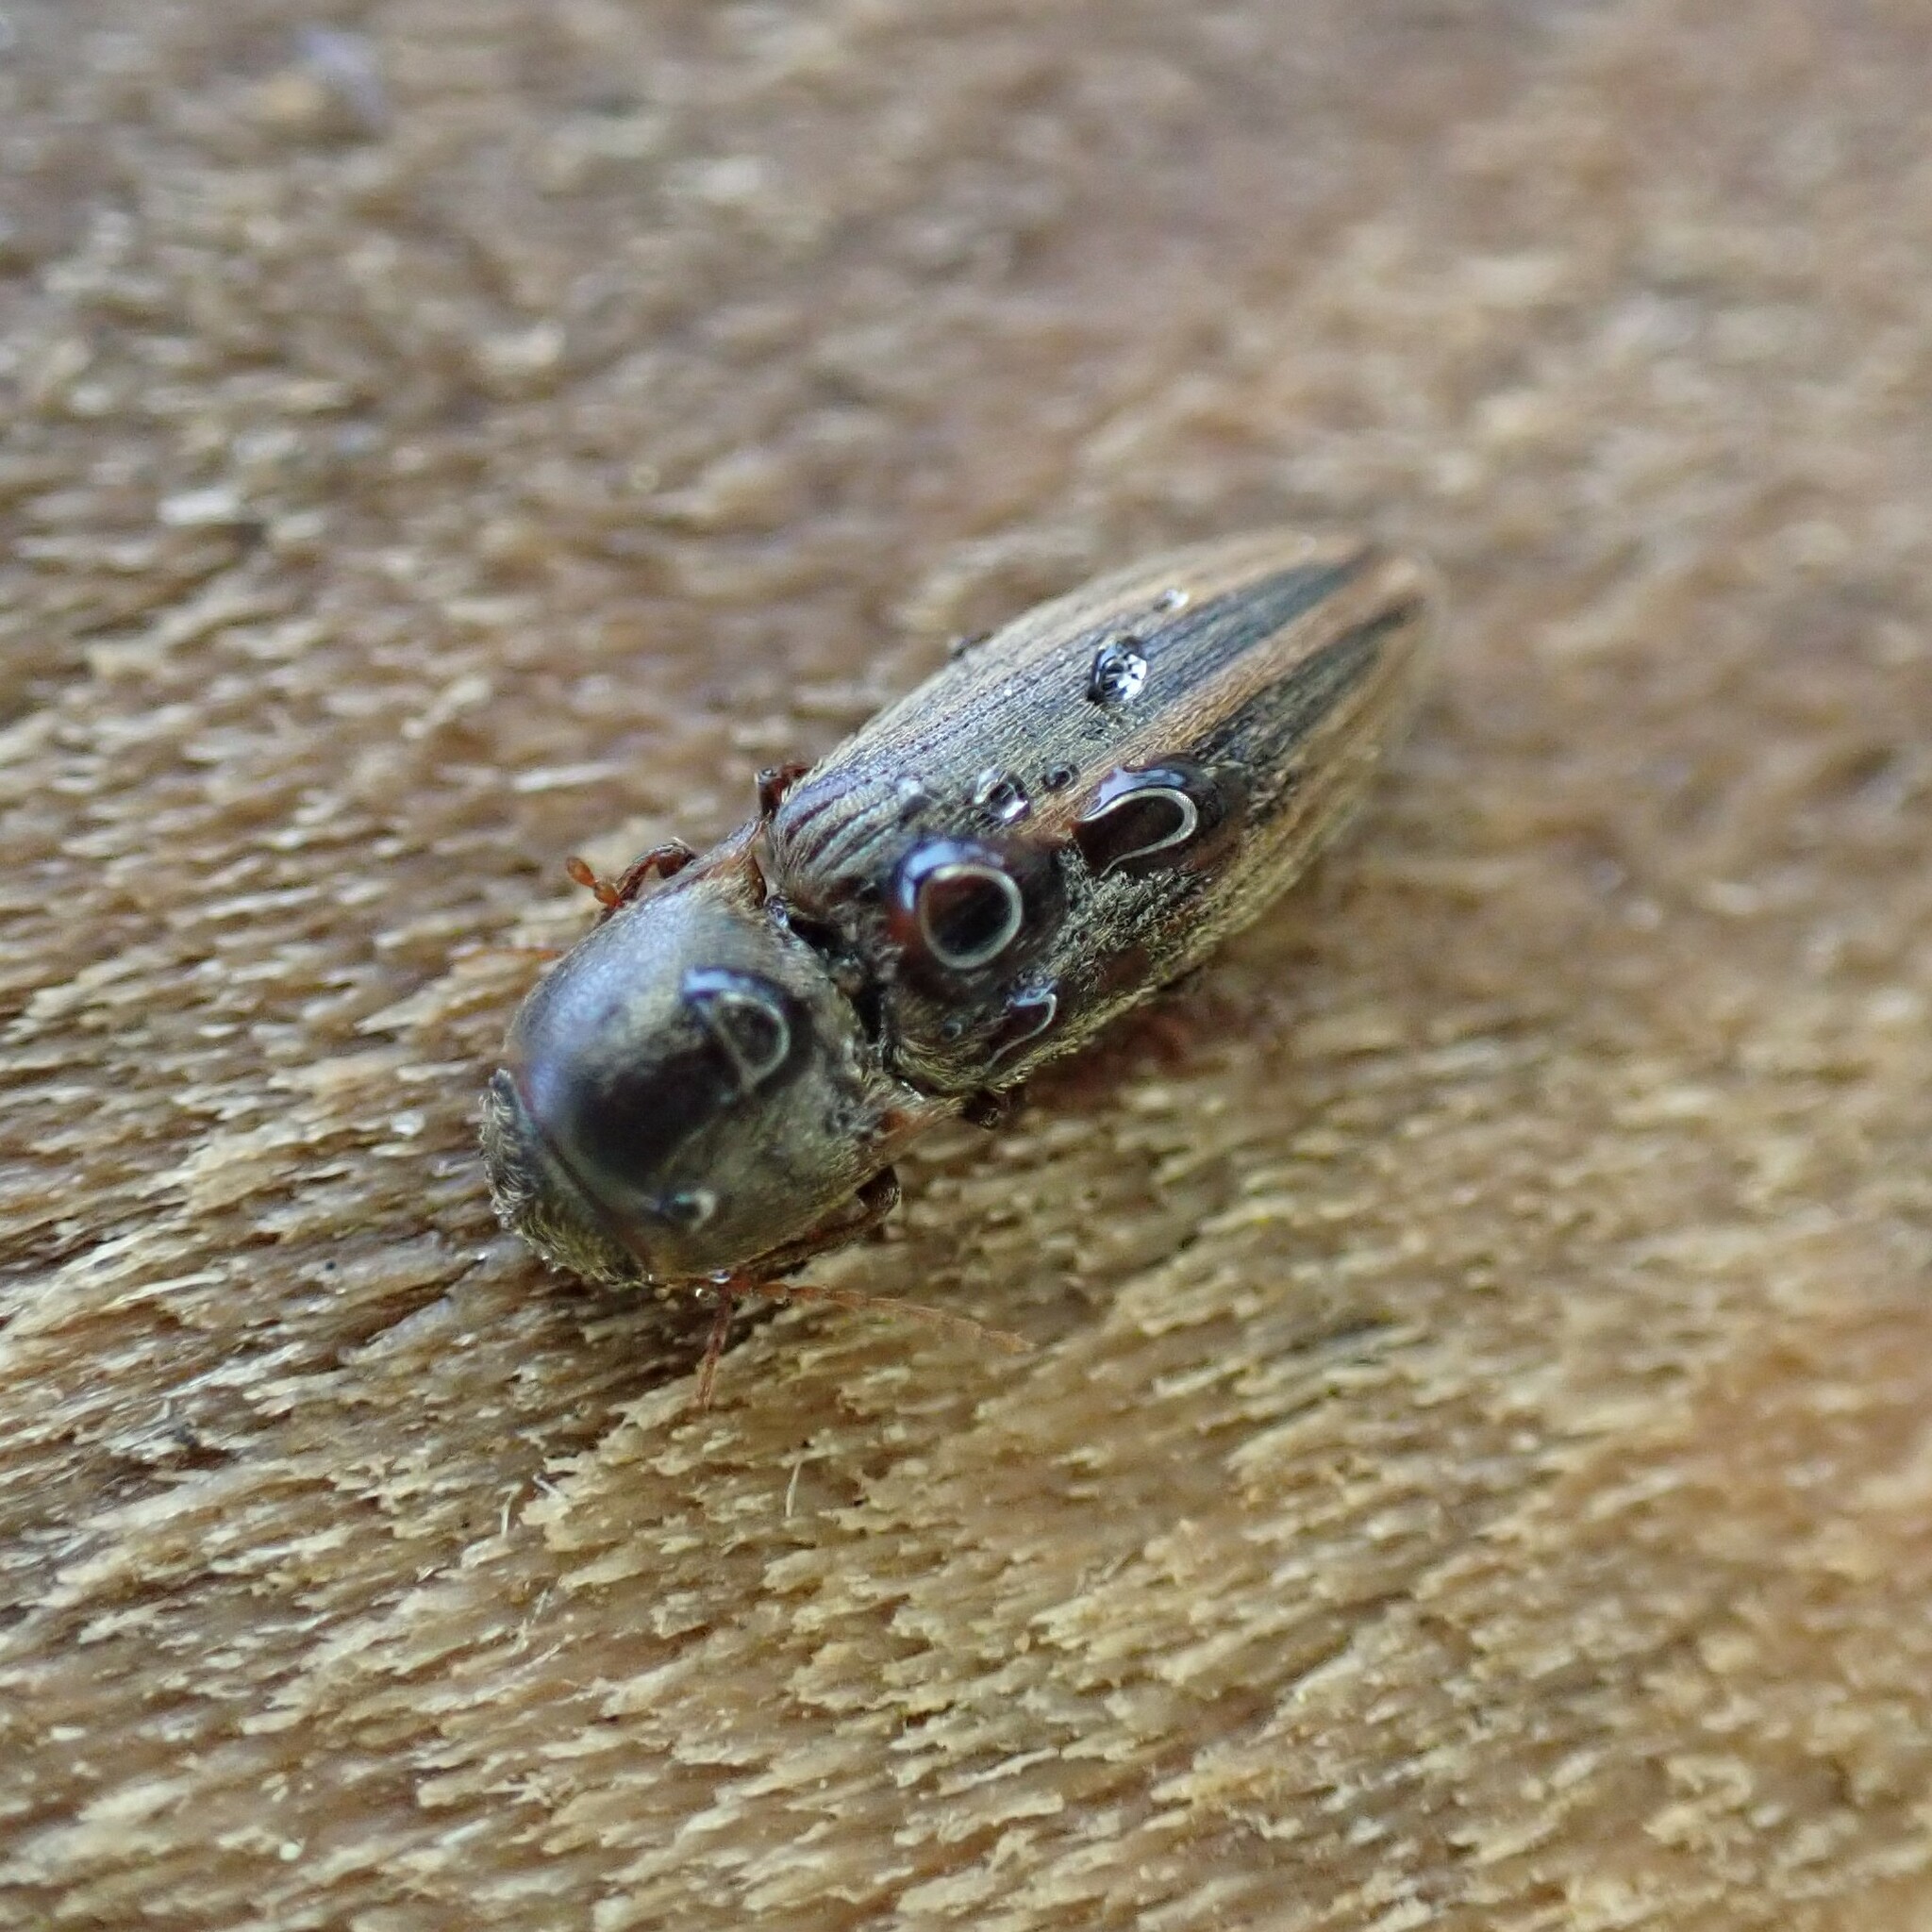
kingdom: Animalia
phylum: Arthropoda
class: Insecta
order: Coleoptera
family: Elateridae
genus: Agriotes
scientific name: Agriotes lineatus
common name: Lined click beetle
